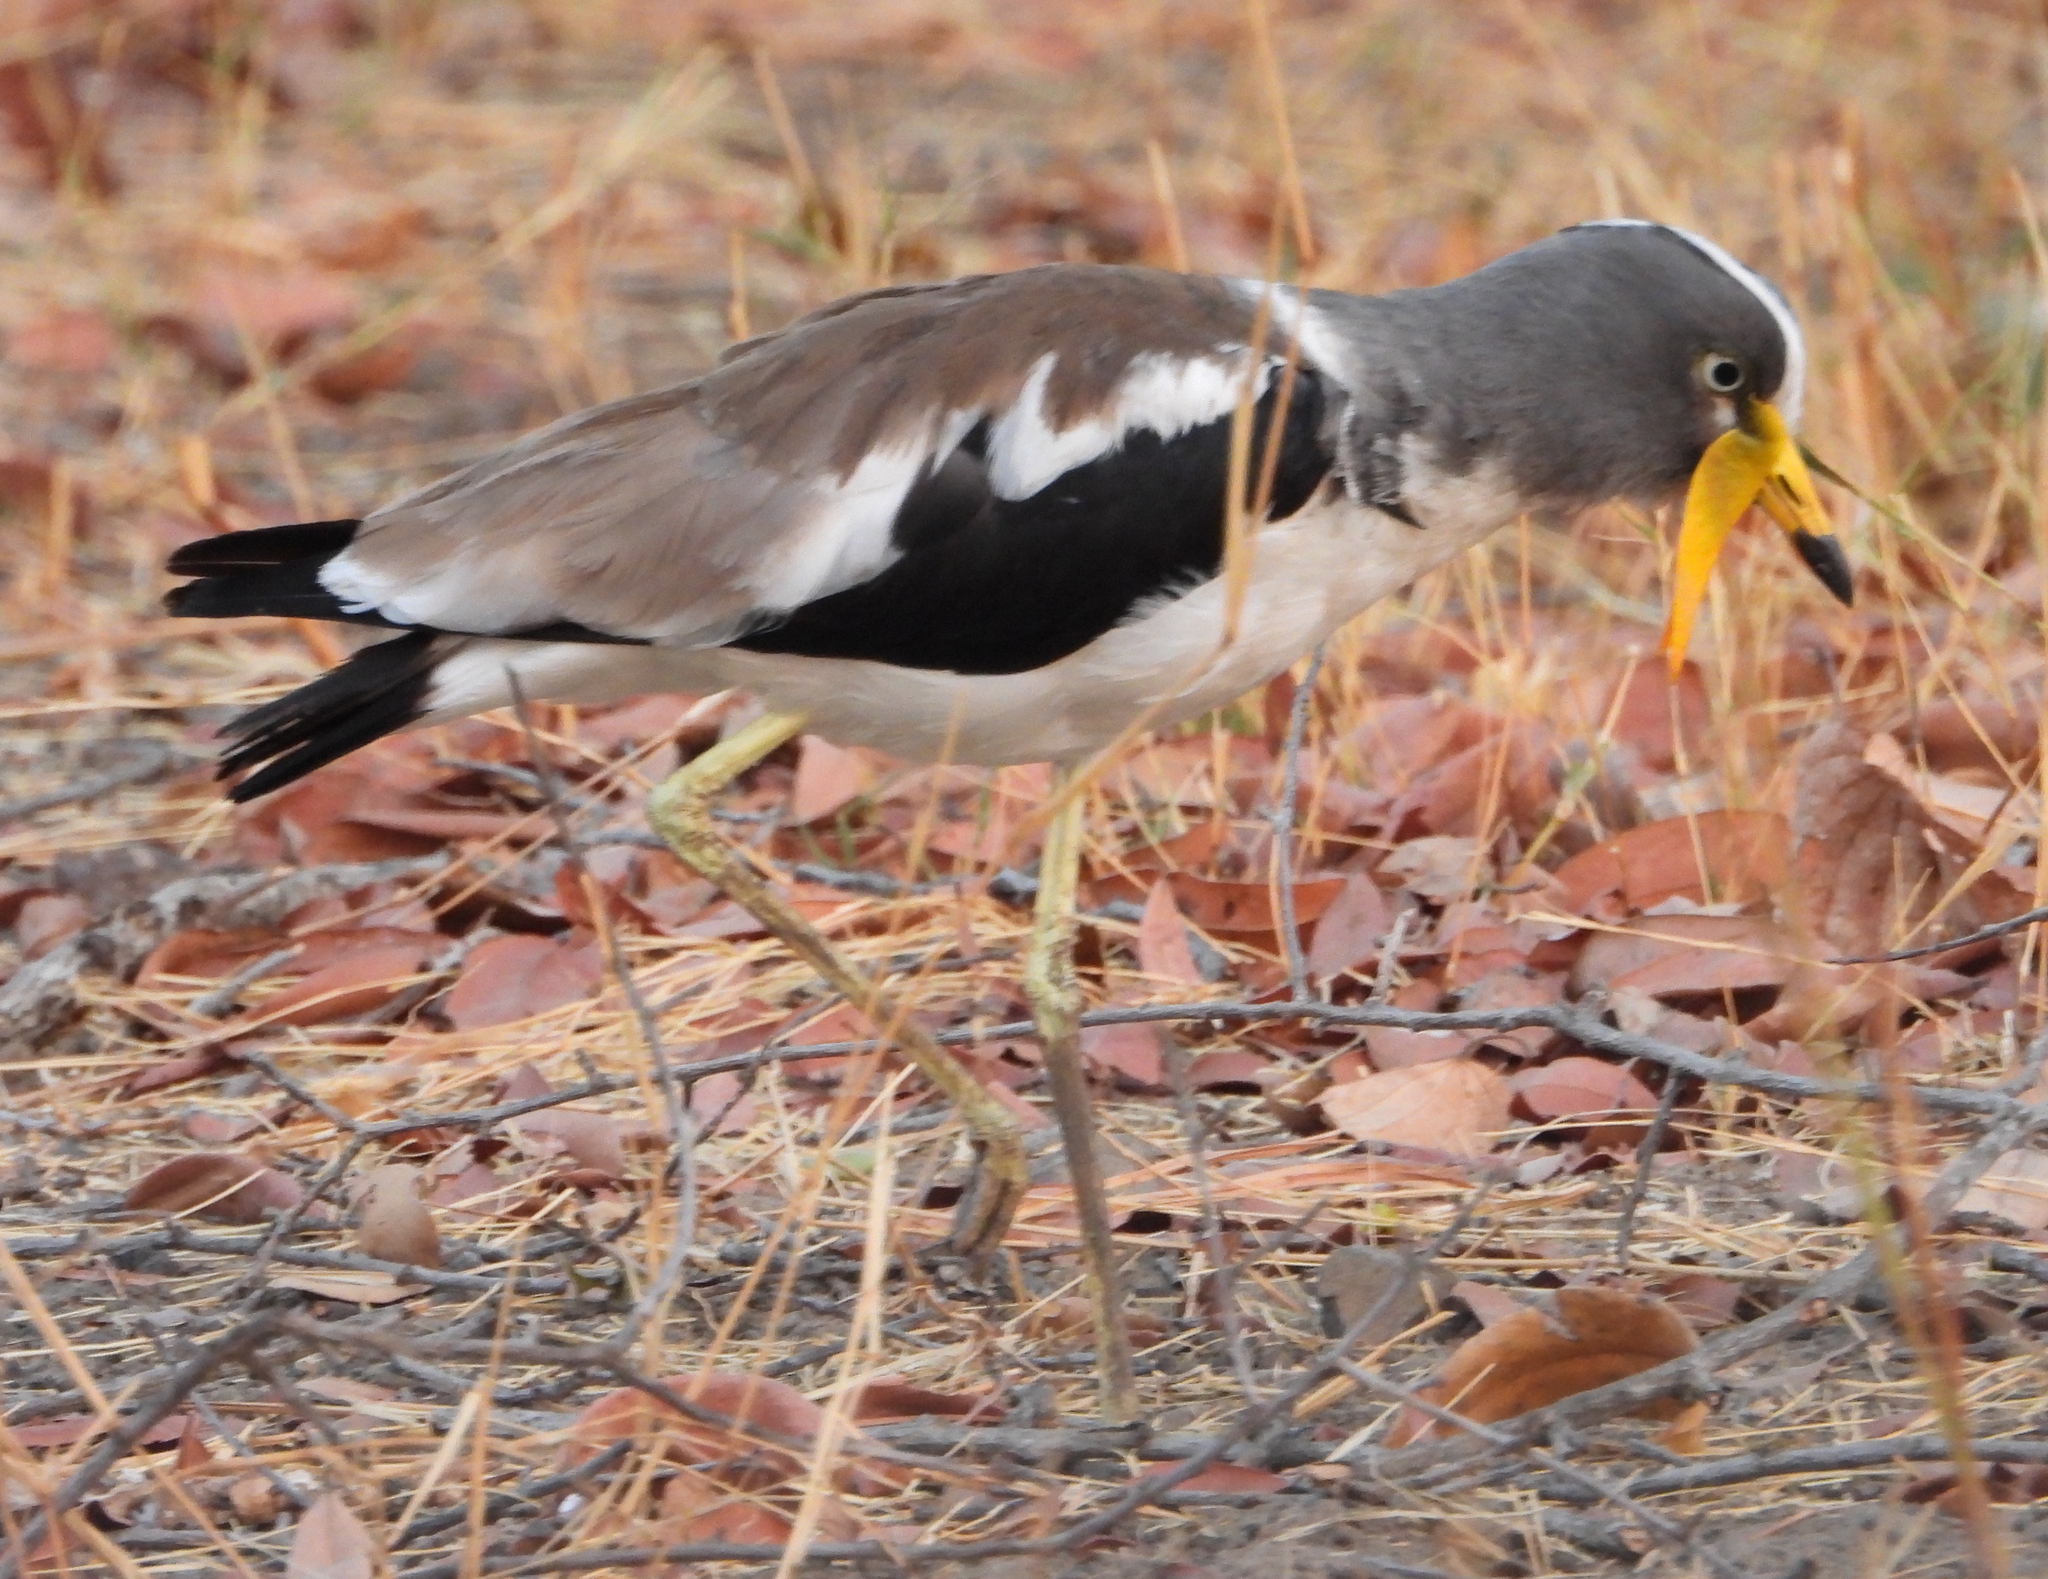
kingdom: Animalia
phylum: Chordata
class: Aves
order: Charadriiformes
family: Charadriidae
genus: Vanellus
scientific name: Vanellus albiceps
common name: White-crowned lapwing
